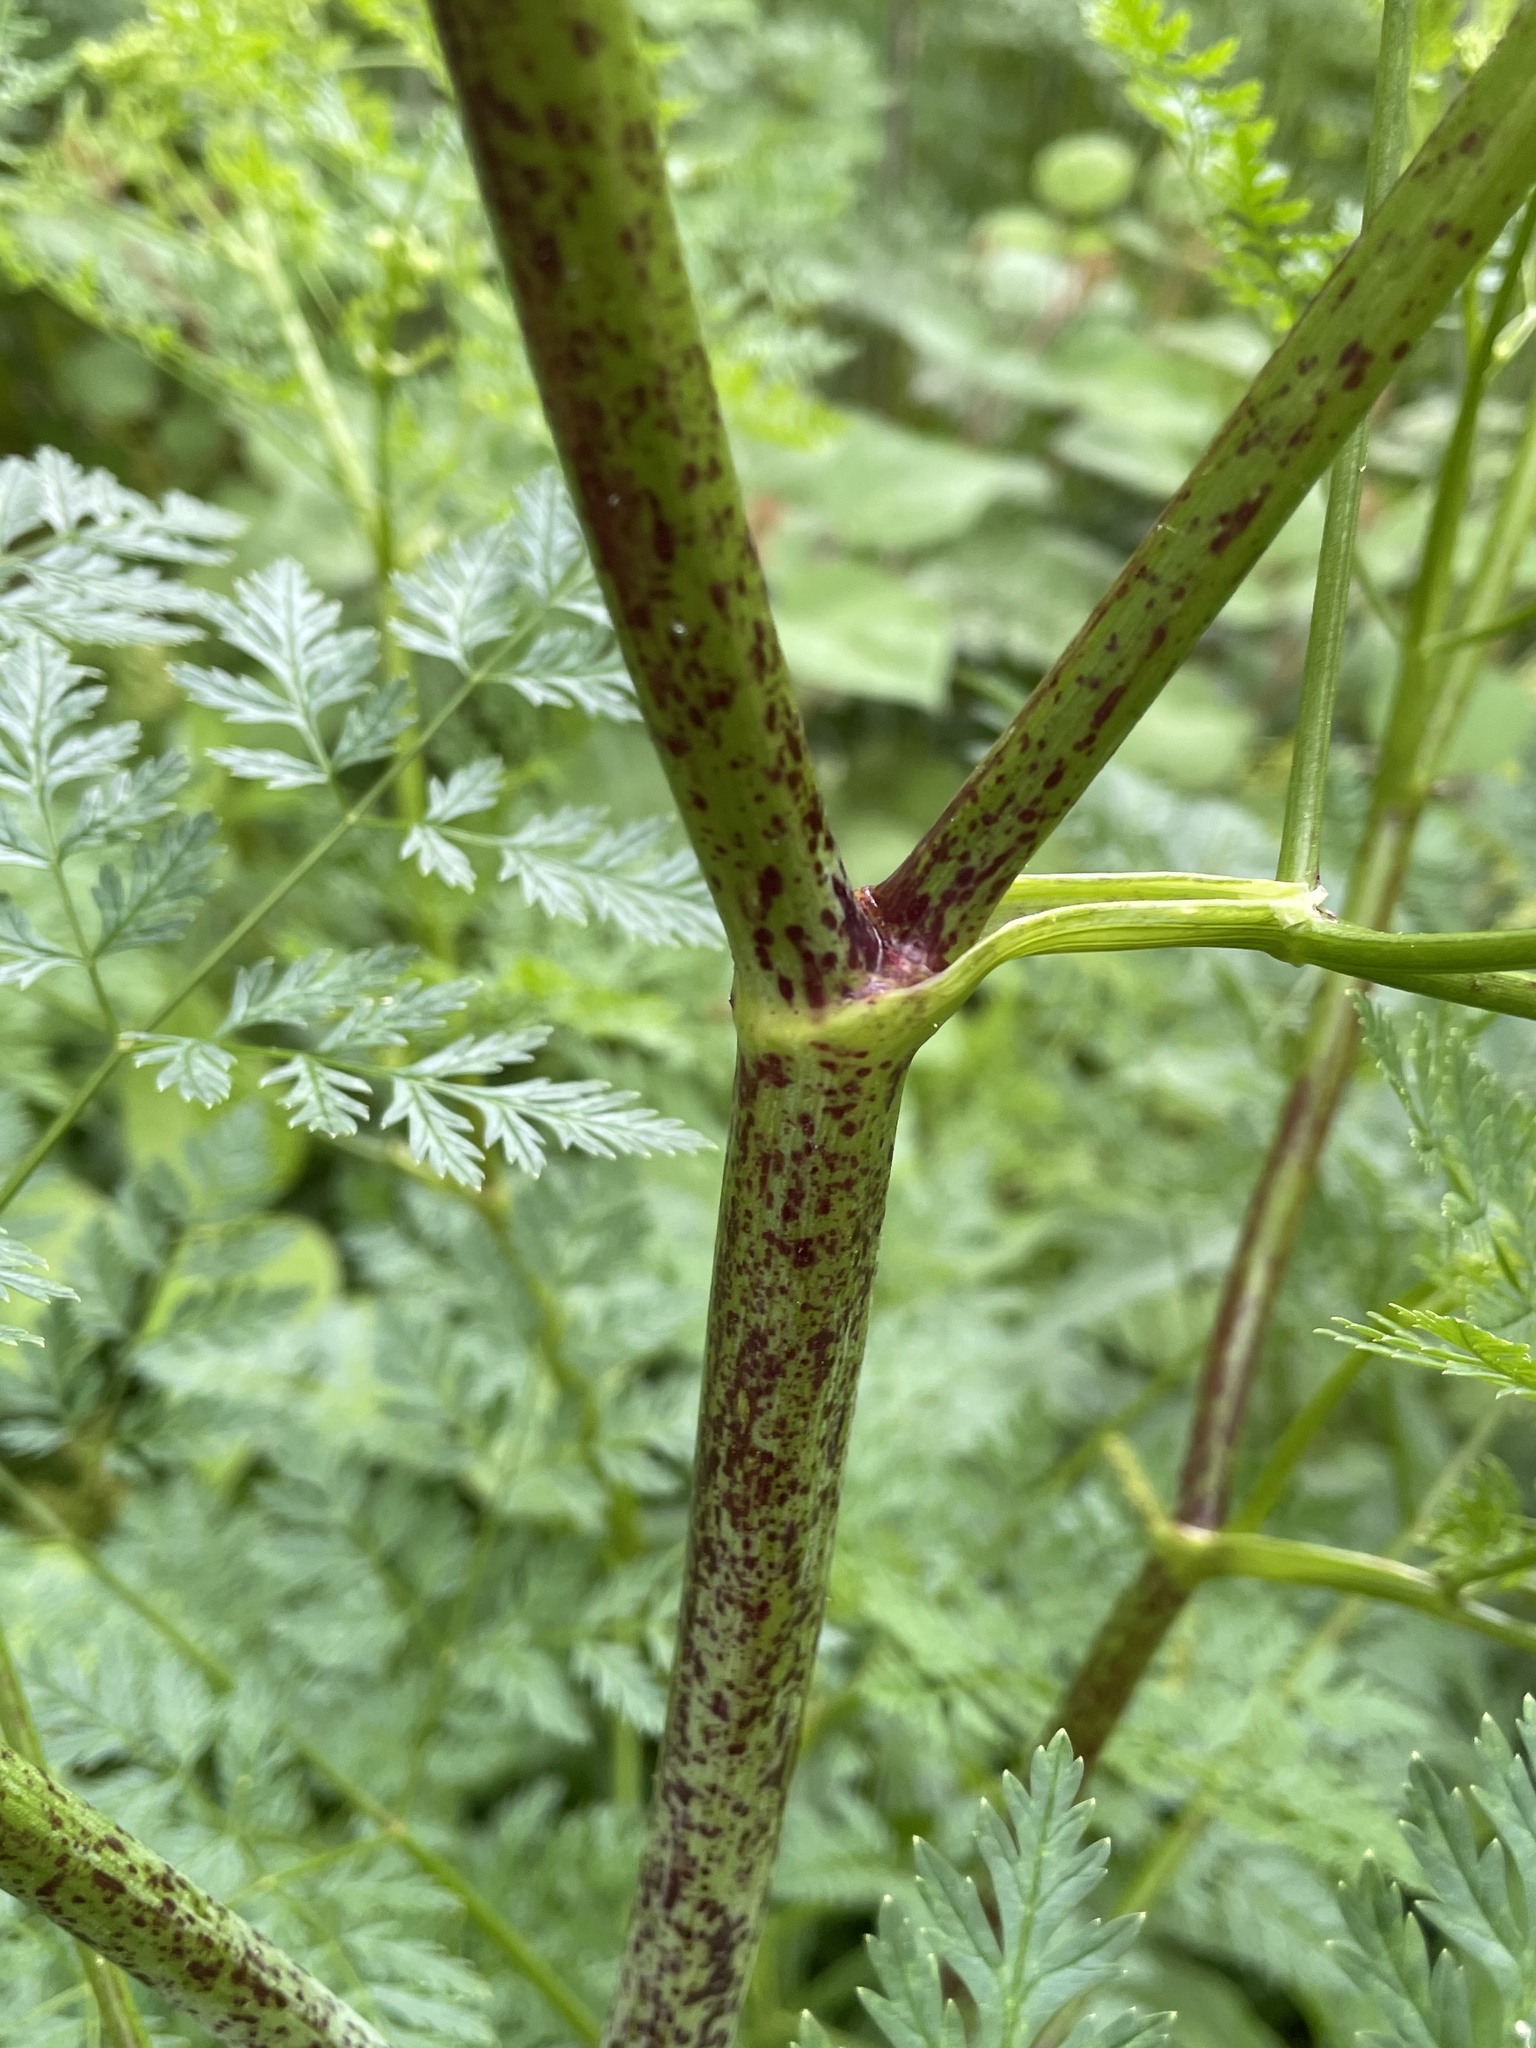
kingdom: Plantae
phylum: Tracheophyta
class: Magnoliopsida
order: Apiales
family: Apiaceae
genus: Conium
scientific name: Conium maculatum
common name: Hemlock
